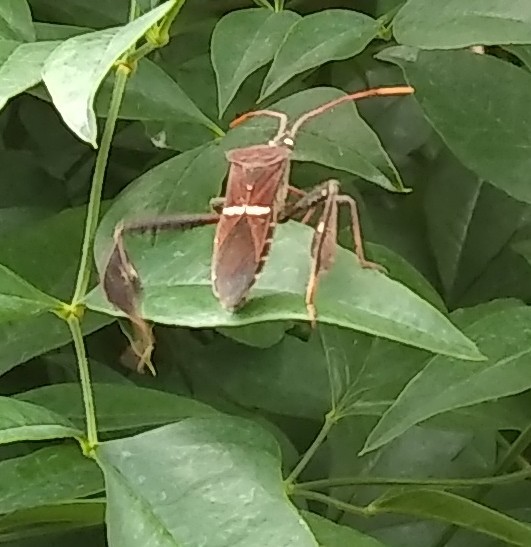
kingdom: Animalia
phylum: Arthropoda
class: Insecta
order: Hemiptera
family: Coreidae
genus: Leptoglossus
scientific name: Leptoglossus phyllopus
